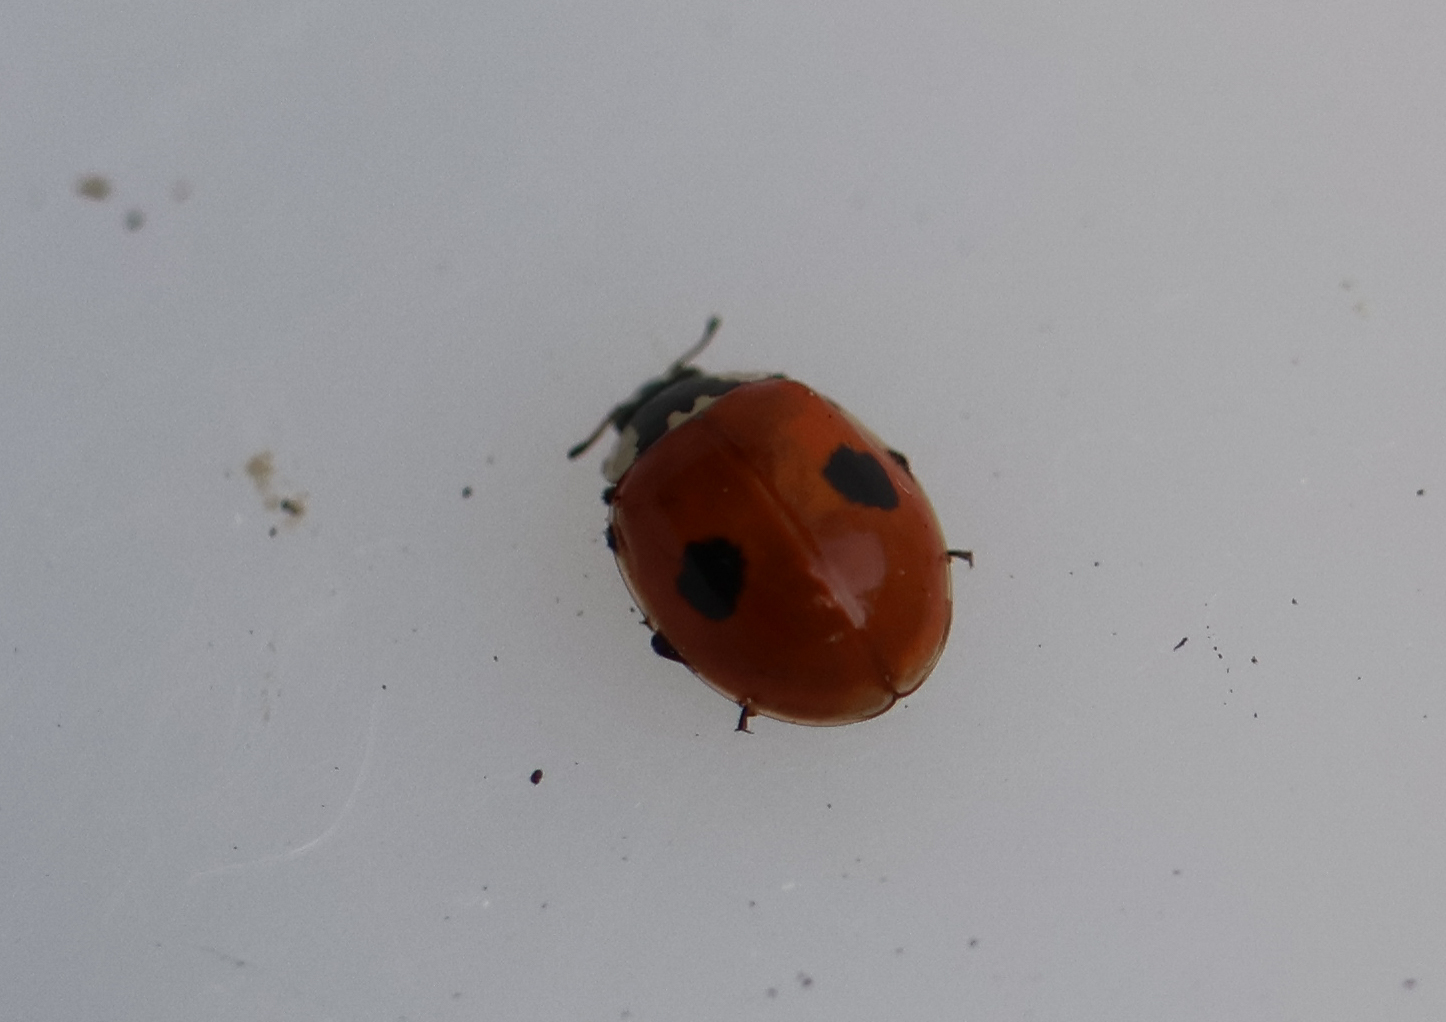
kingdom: Animalia
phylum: Arthropoda
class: Insecta
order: Coleoptera
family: Coccinellidae
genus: Adalia
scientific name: Adalia bipunctata
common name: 2-spot ladybird
